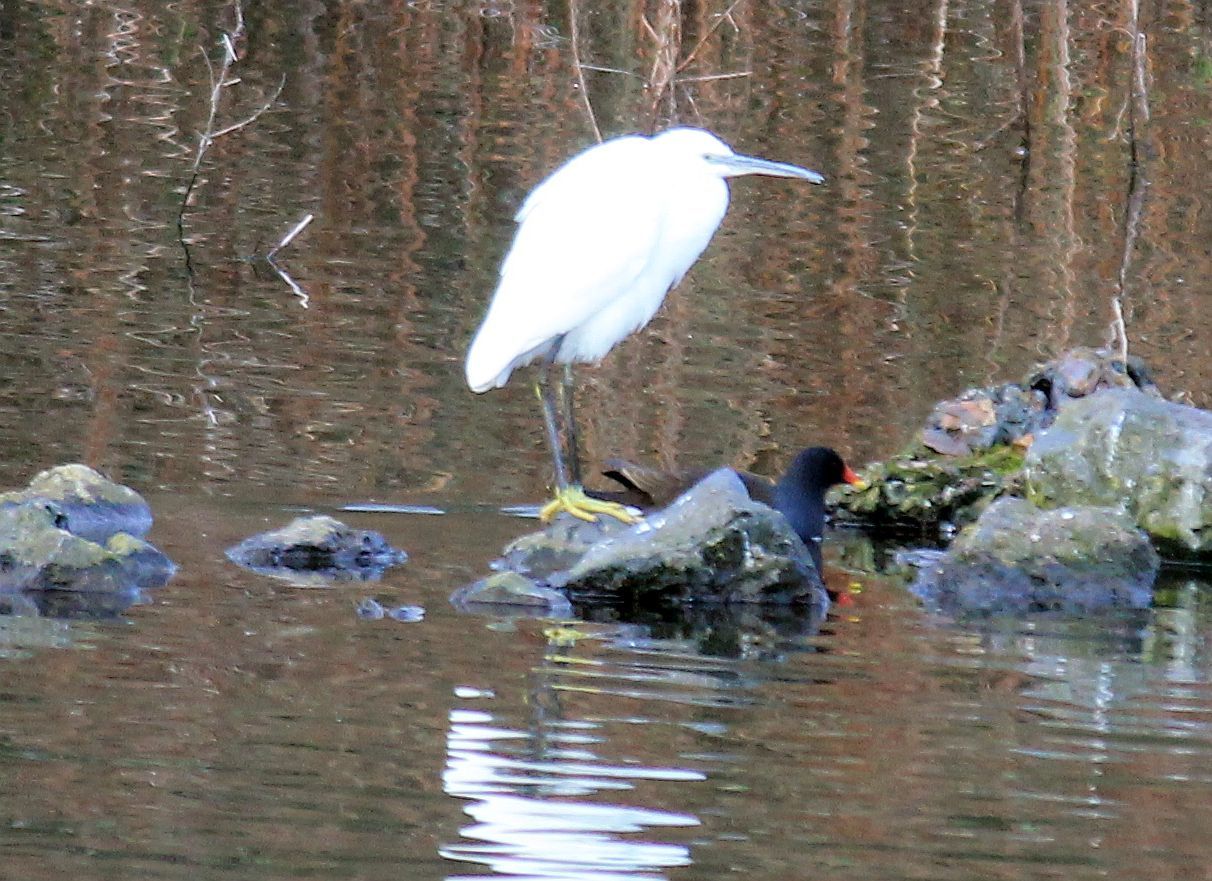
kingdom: Animalia
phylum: Chordata
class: Aves
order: Pelecaniformes
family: Ardeidae
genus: Egretta
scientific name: Egretta garzetta
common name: Little egret
